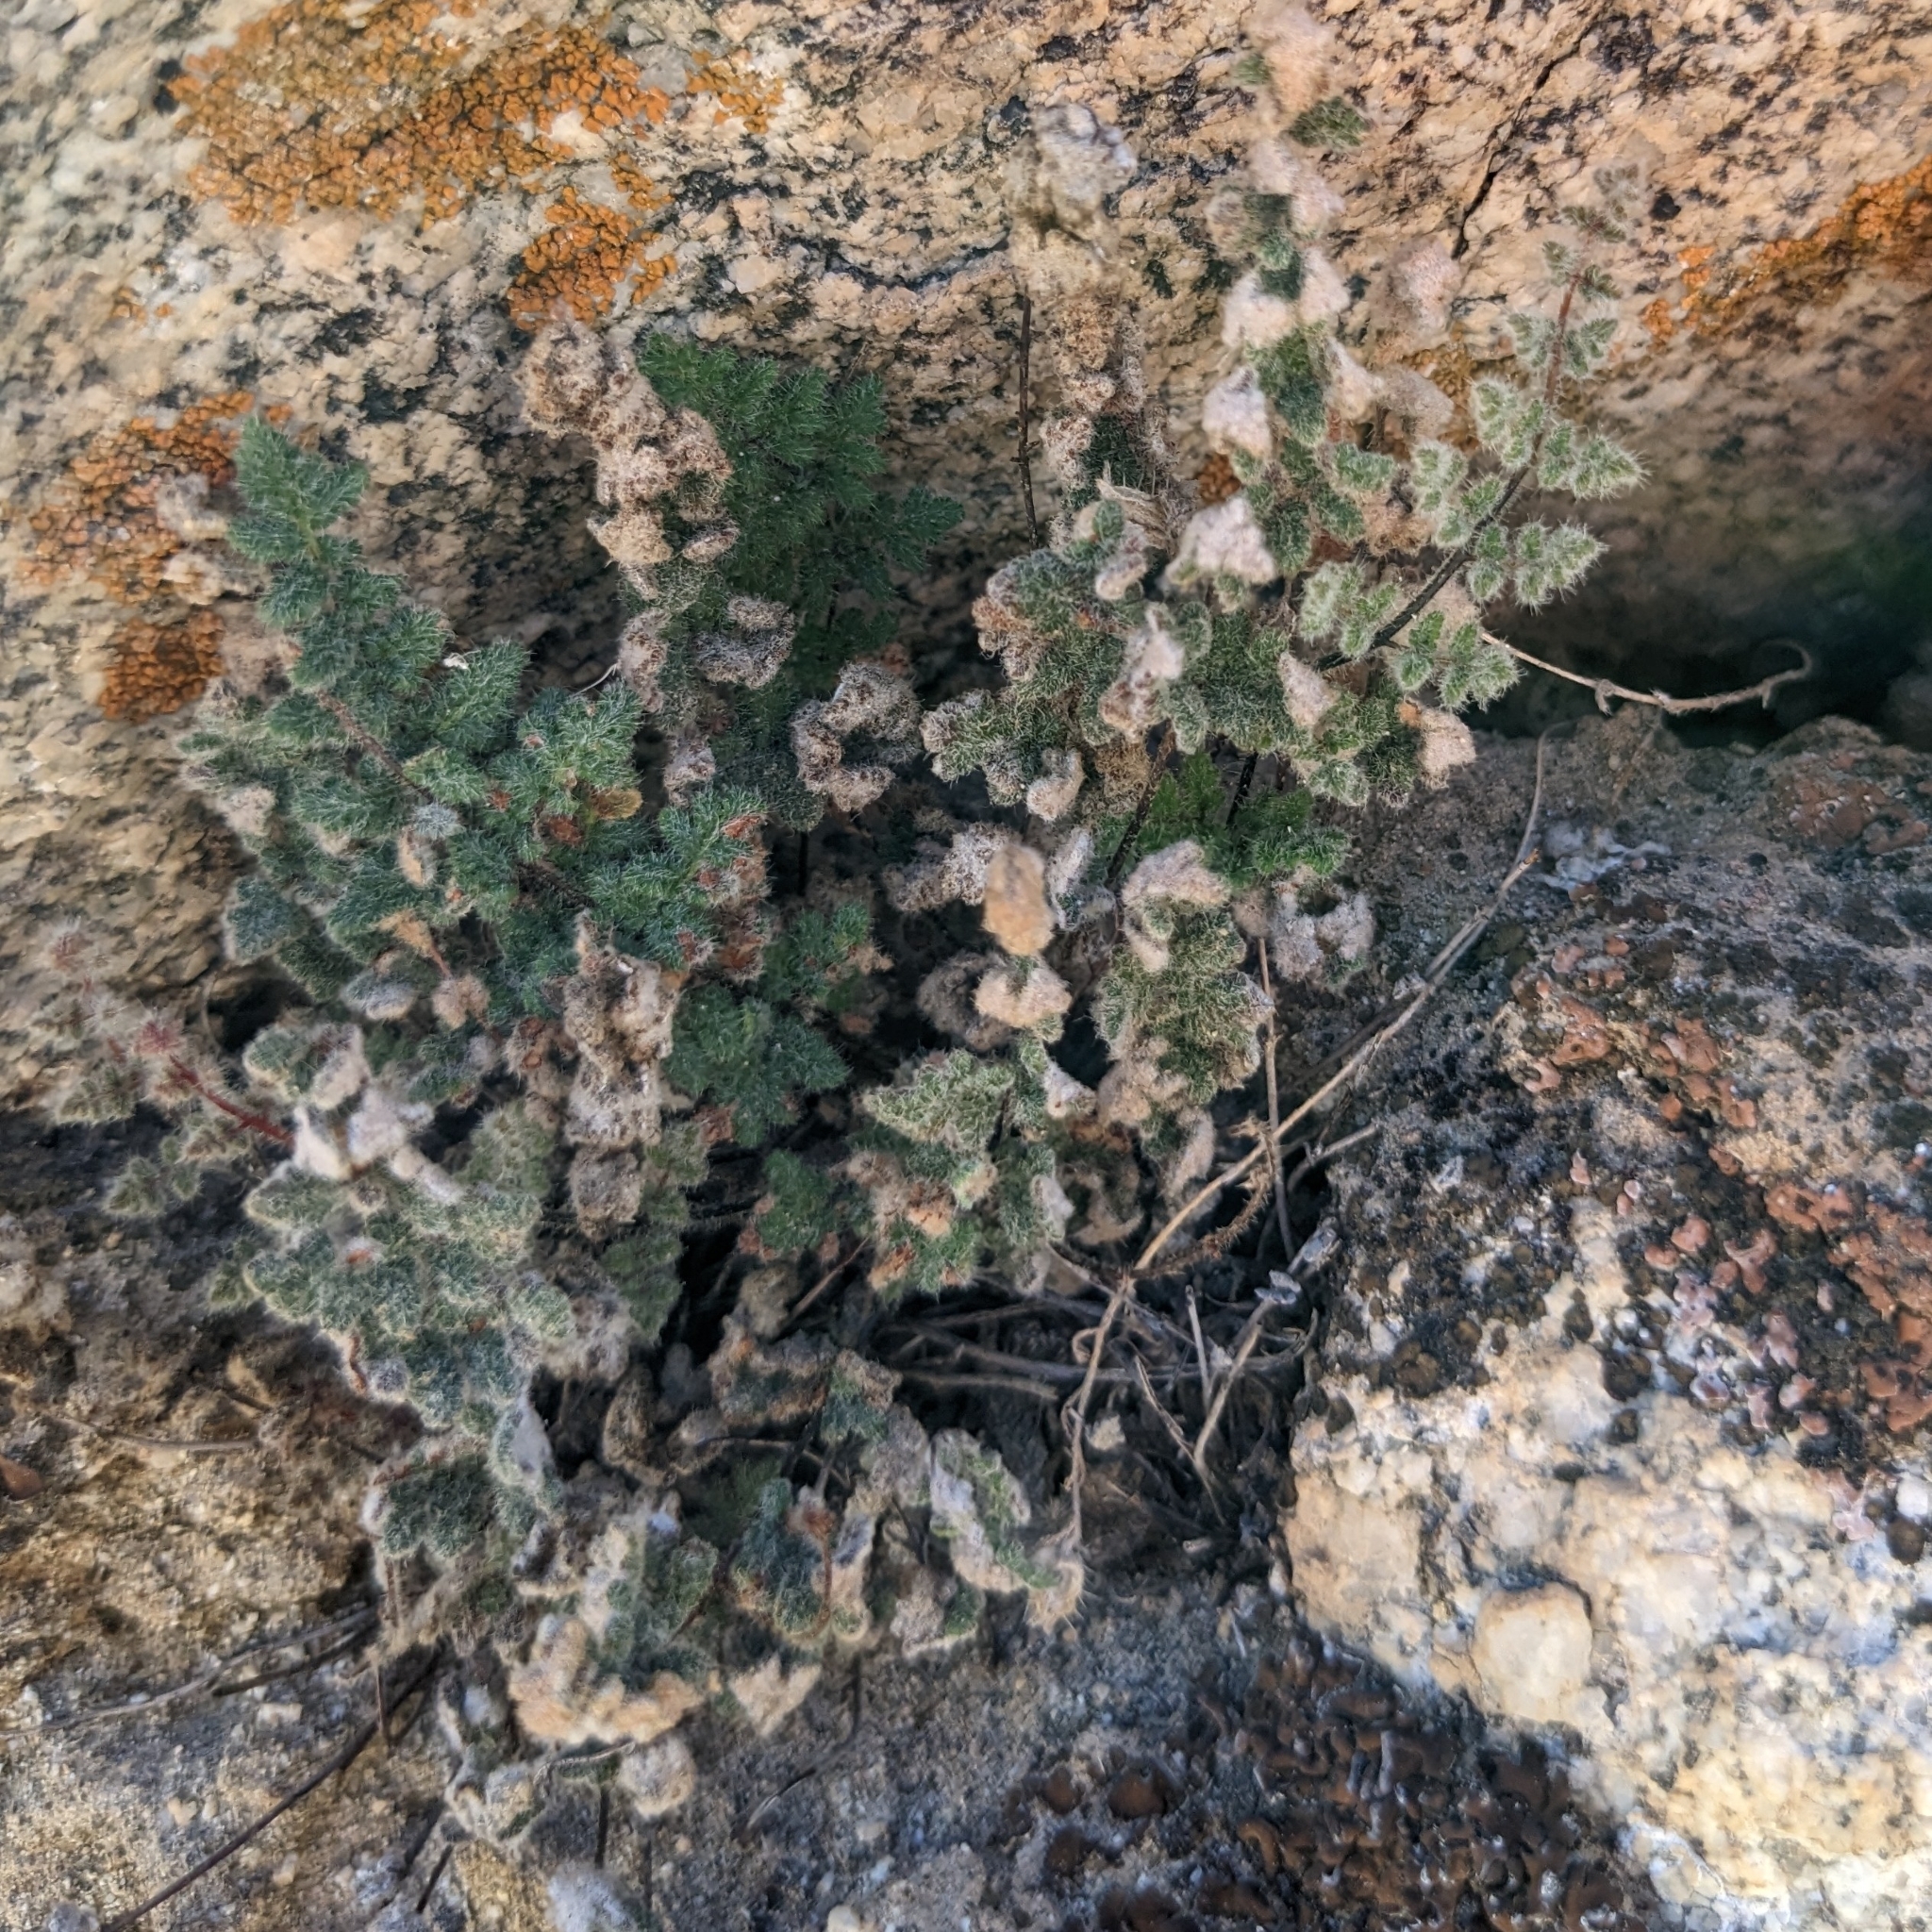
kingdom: Plantae
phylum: Tracheophyta
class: Polypodiopsida
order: Polypodiales
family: Pteridaceae
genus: Myriopteris
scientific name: Myriopteris parryi
